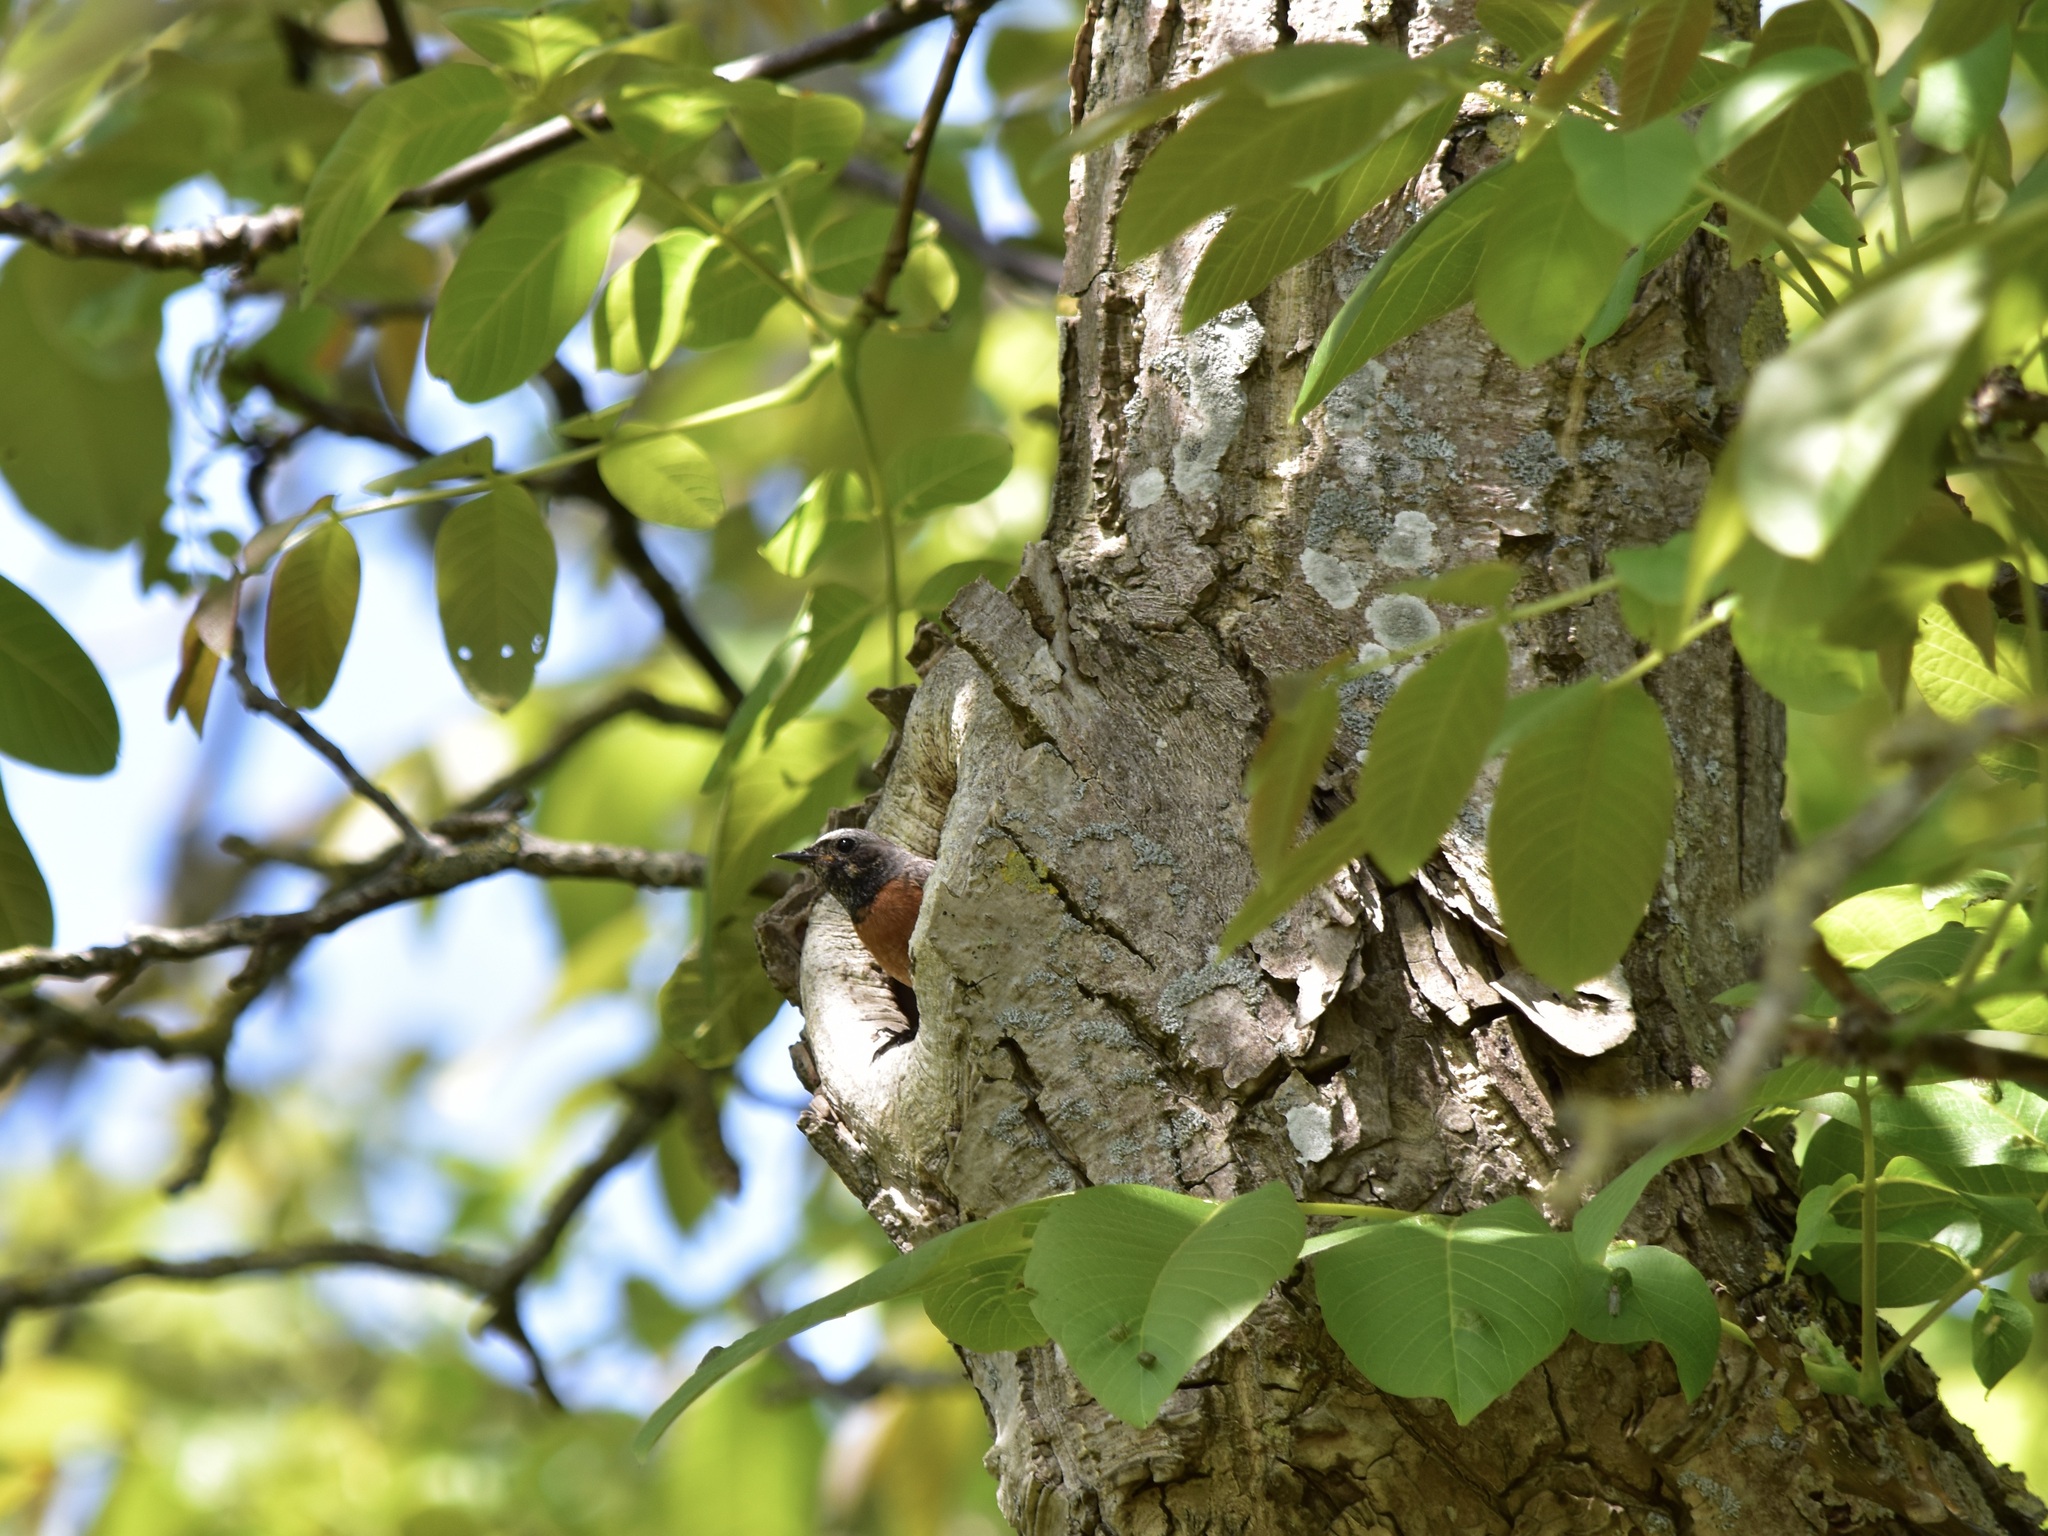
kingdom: Animalia
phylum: Chordata
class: Aves
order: Passeriformes
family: Muscicapidae
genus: Phoenicurus
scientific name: Phoenicurus phoenicurus
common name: Common redstart
